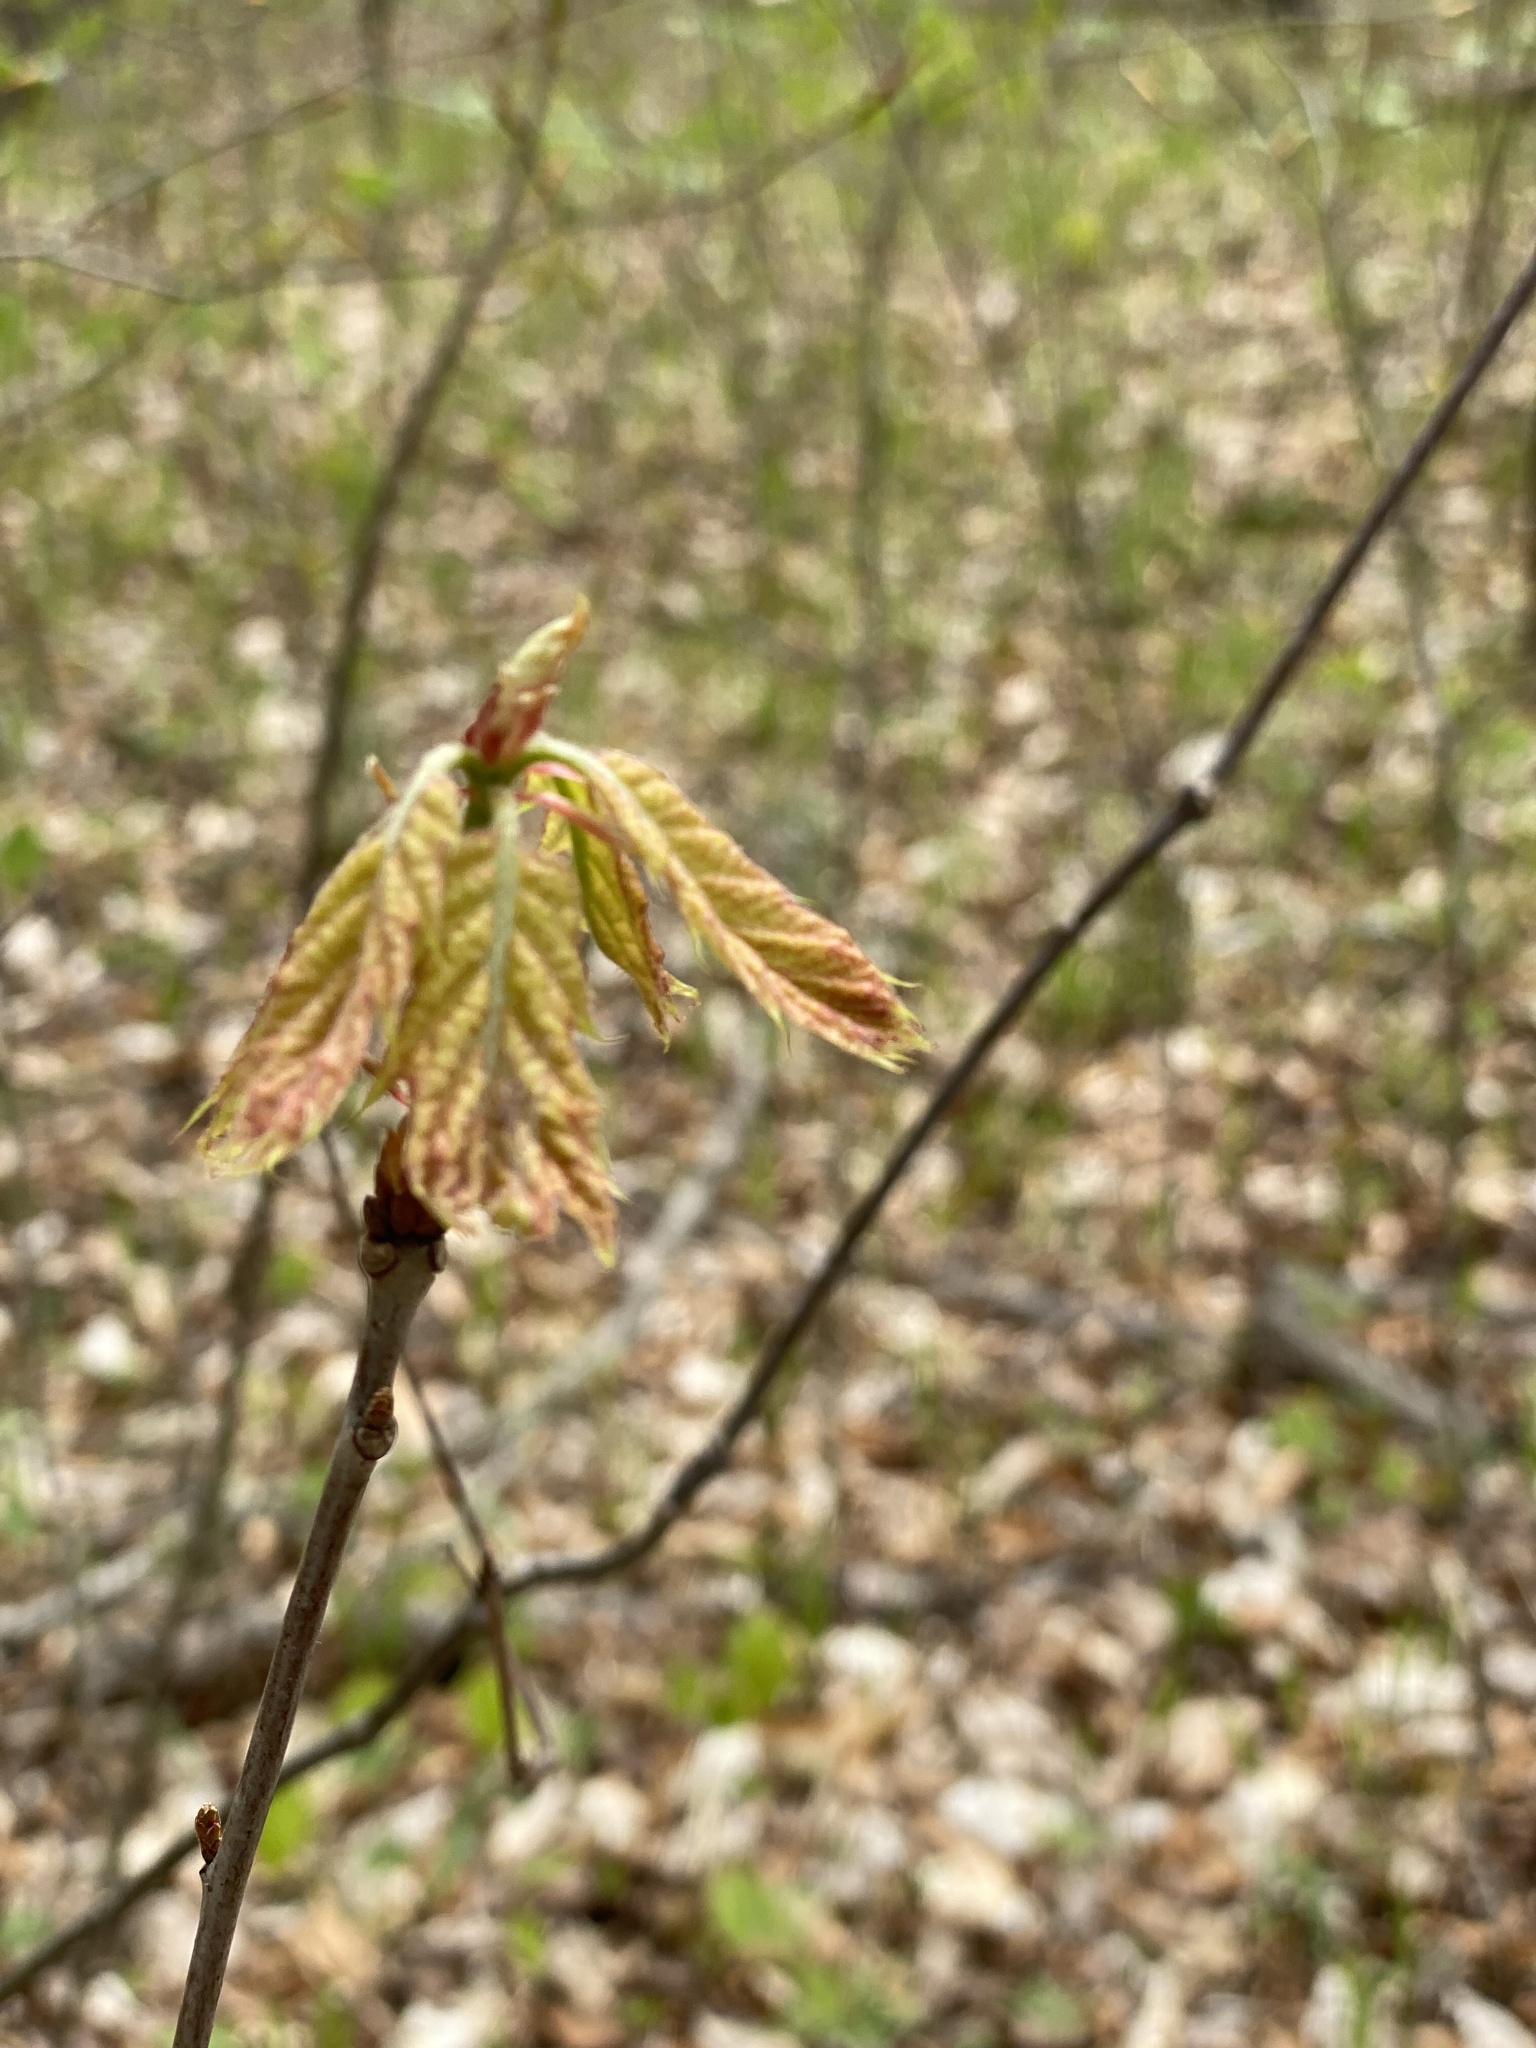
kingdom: Plantae
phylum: Tracheophyta
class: Magnoliopsida
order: Fagales
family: Fagaceae
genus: Quercus
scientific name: Quercus rubra
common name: Red oak
